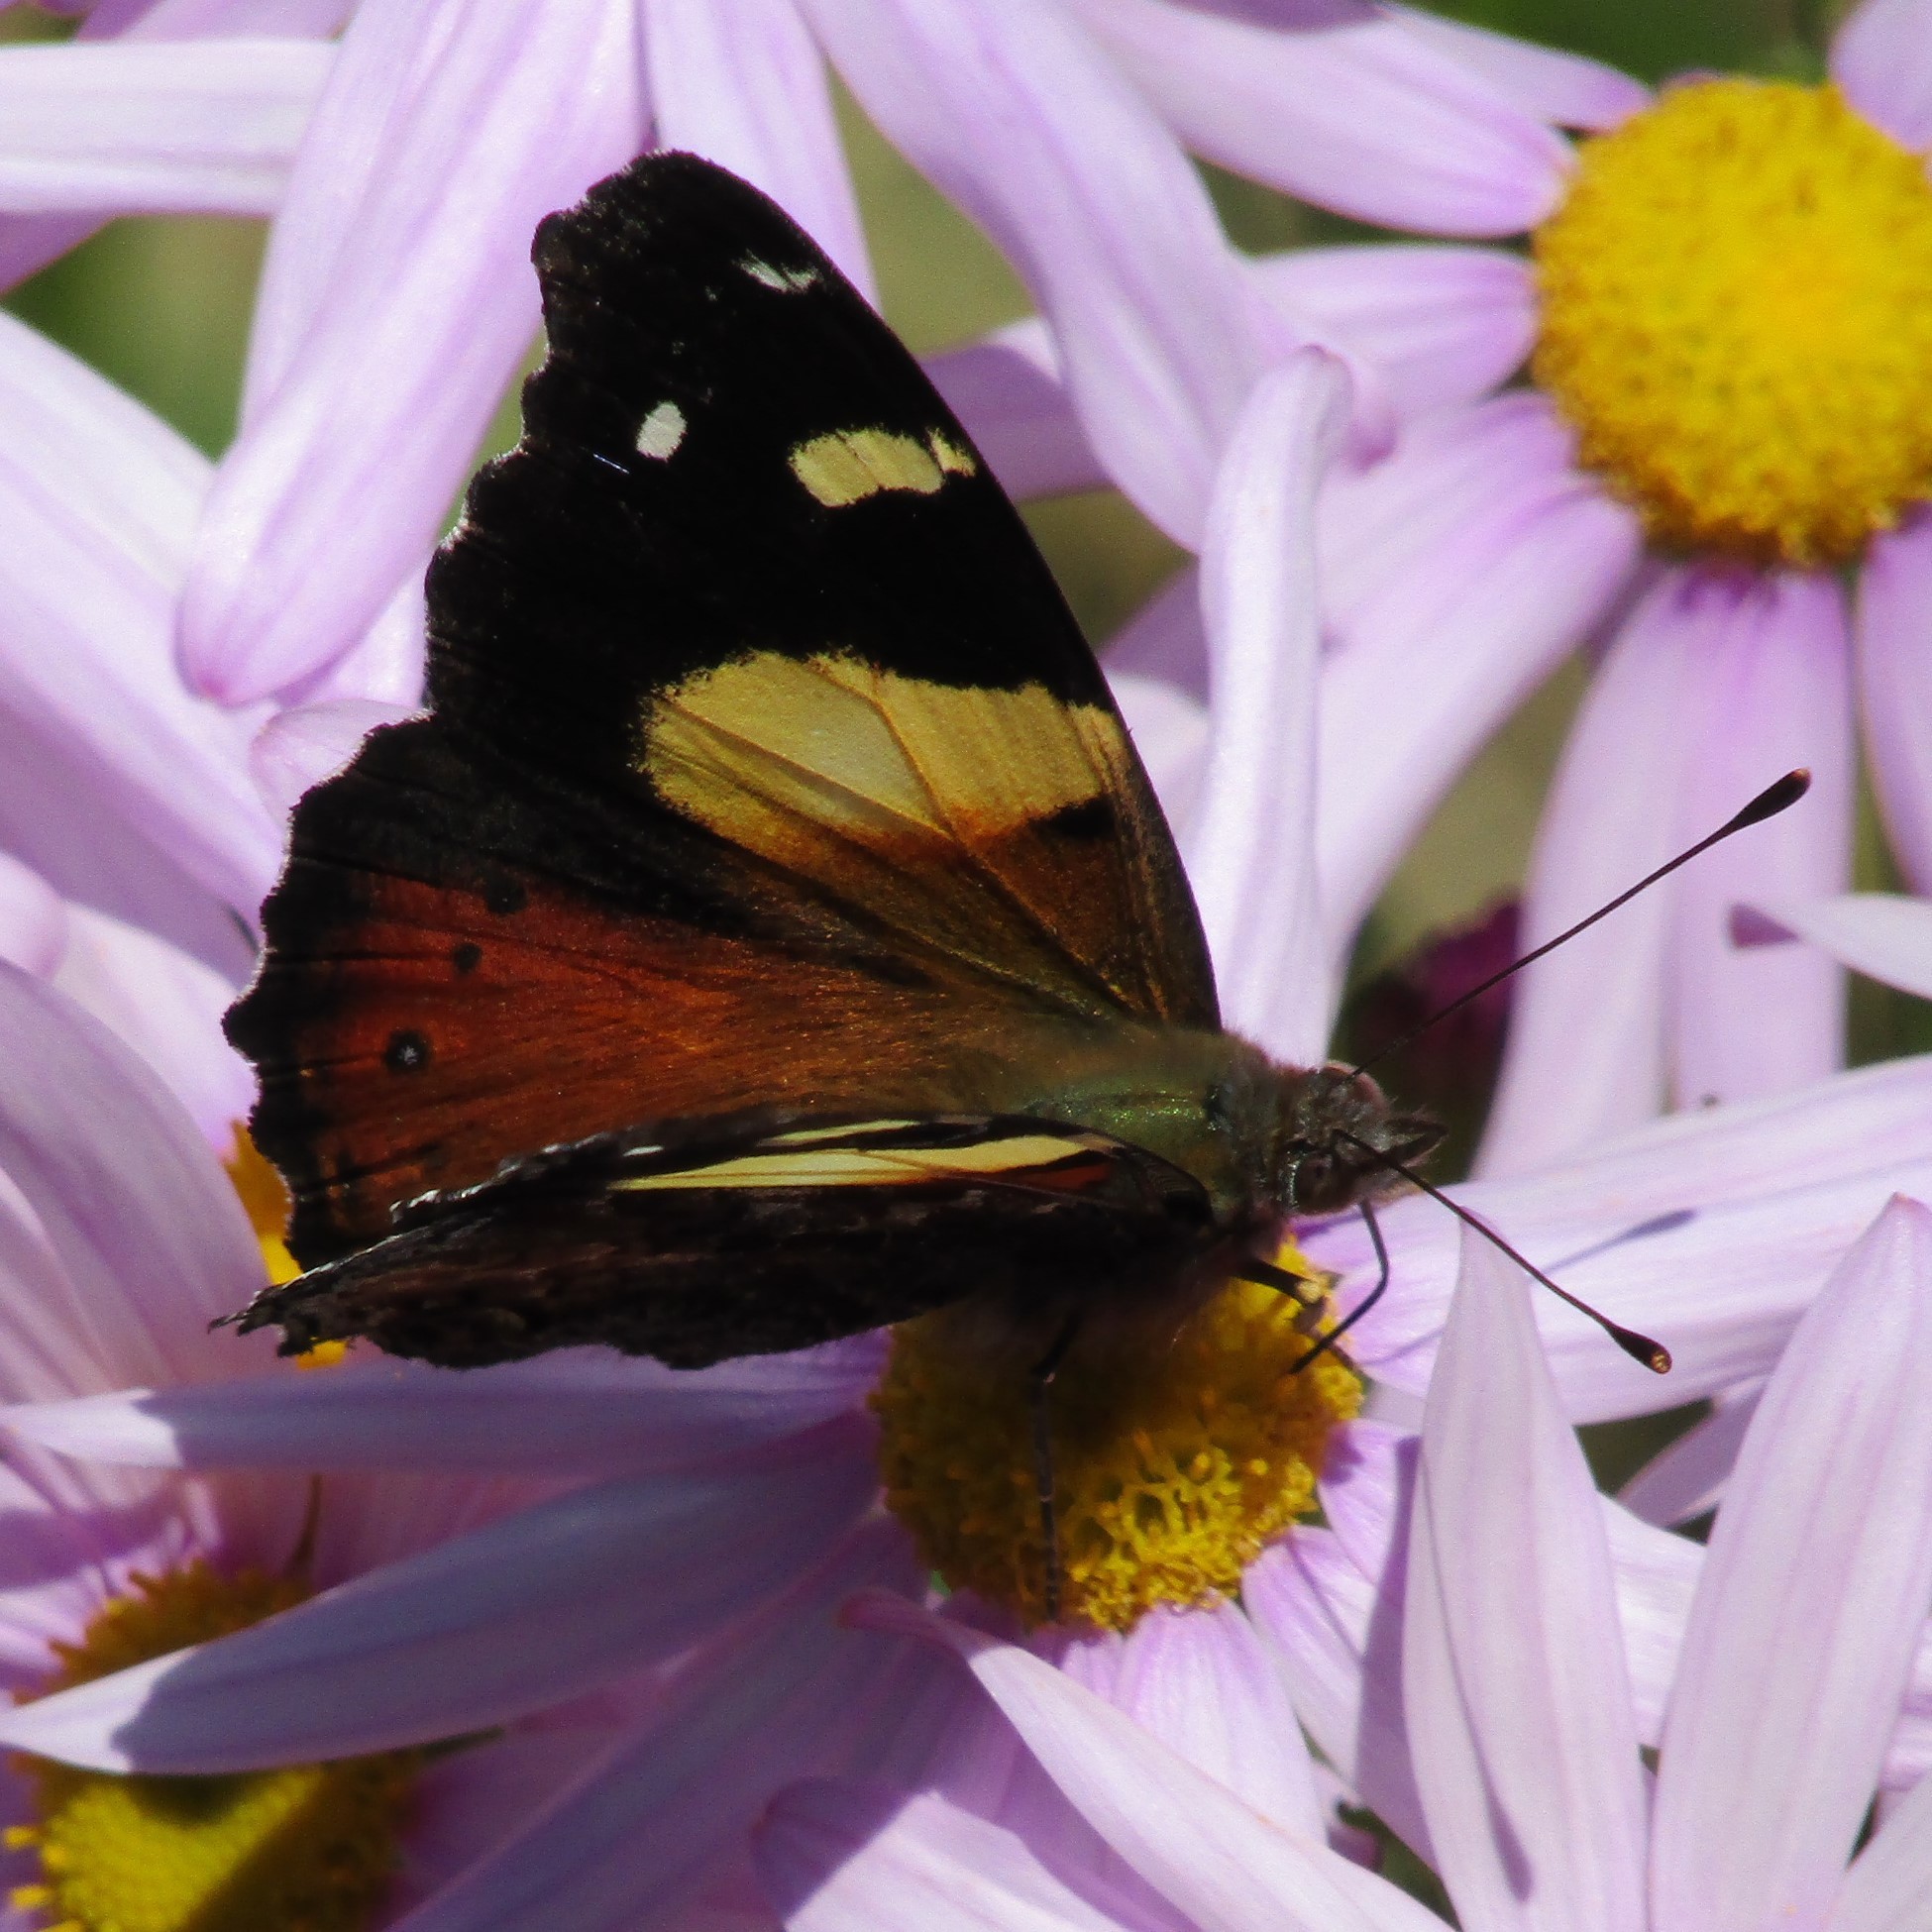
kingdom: Animalia
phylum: Arthropoda
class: Insecta
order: Lepidoptera
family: Nymphalidae
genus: Vanessa
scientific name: Vanessa itea
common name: Yellow admiral
